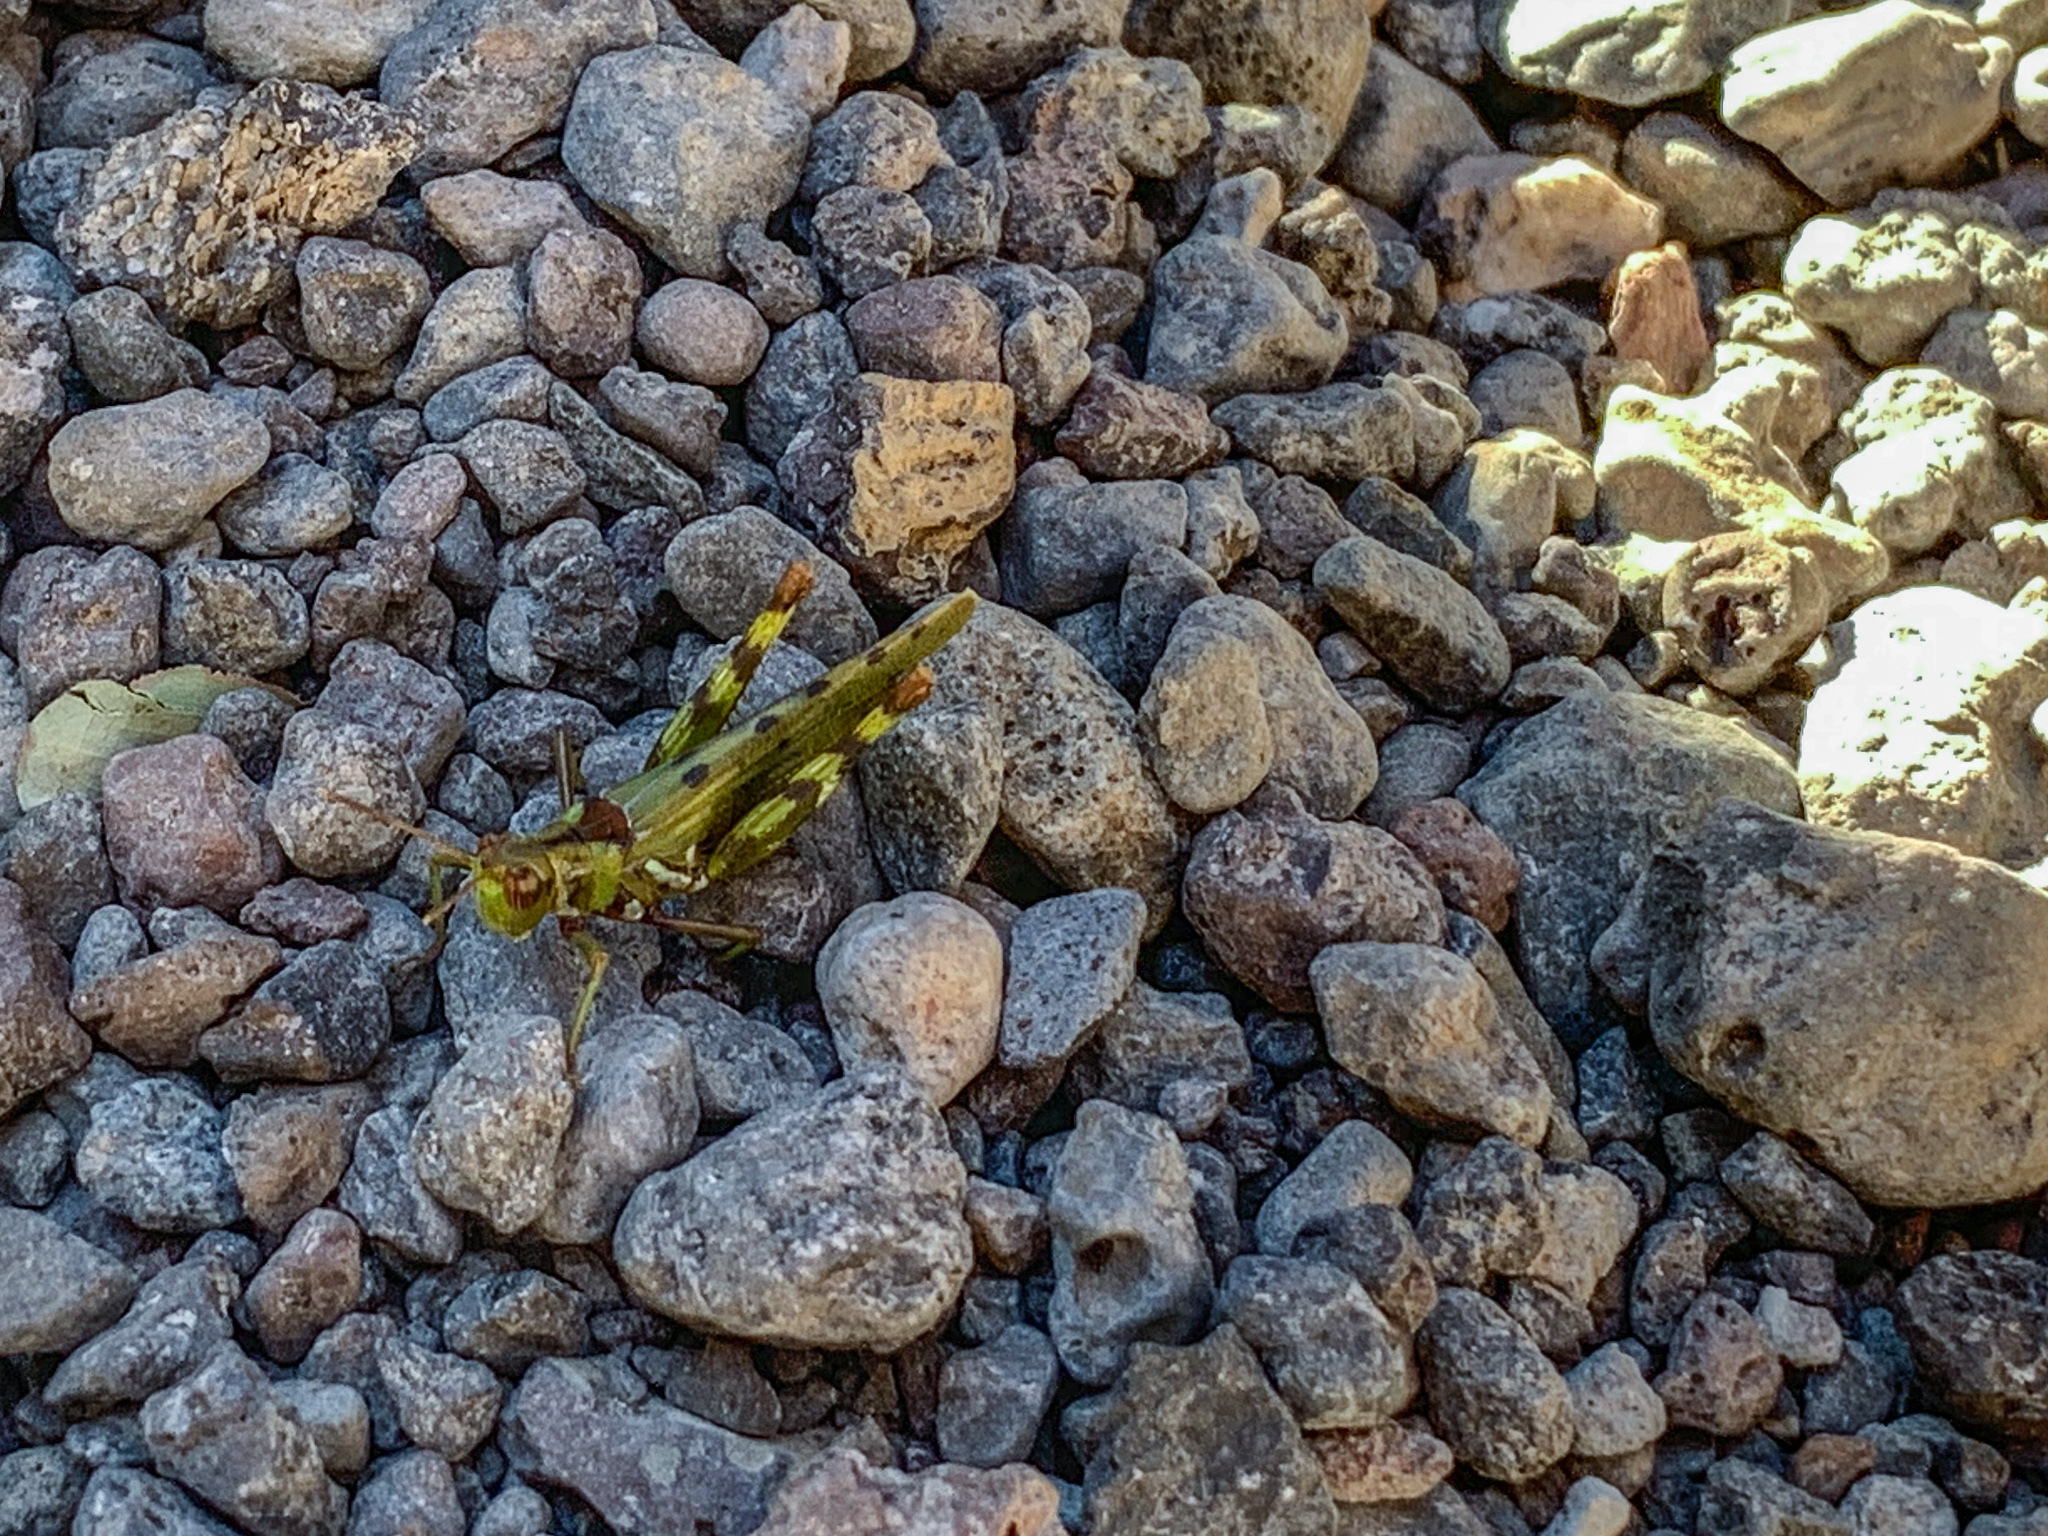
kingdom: Animalia
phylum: Arthropoda
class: Insecta
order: Orthoptera
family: Acrididae
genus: Bootettix
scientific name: Bootettix argentatus
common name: Creosote bush grasshopper
